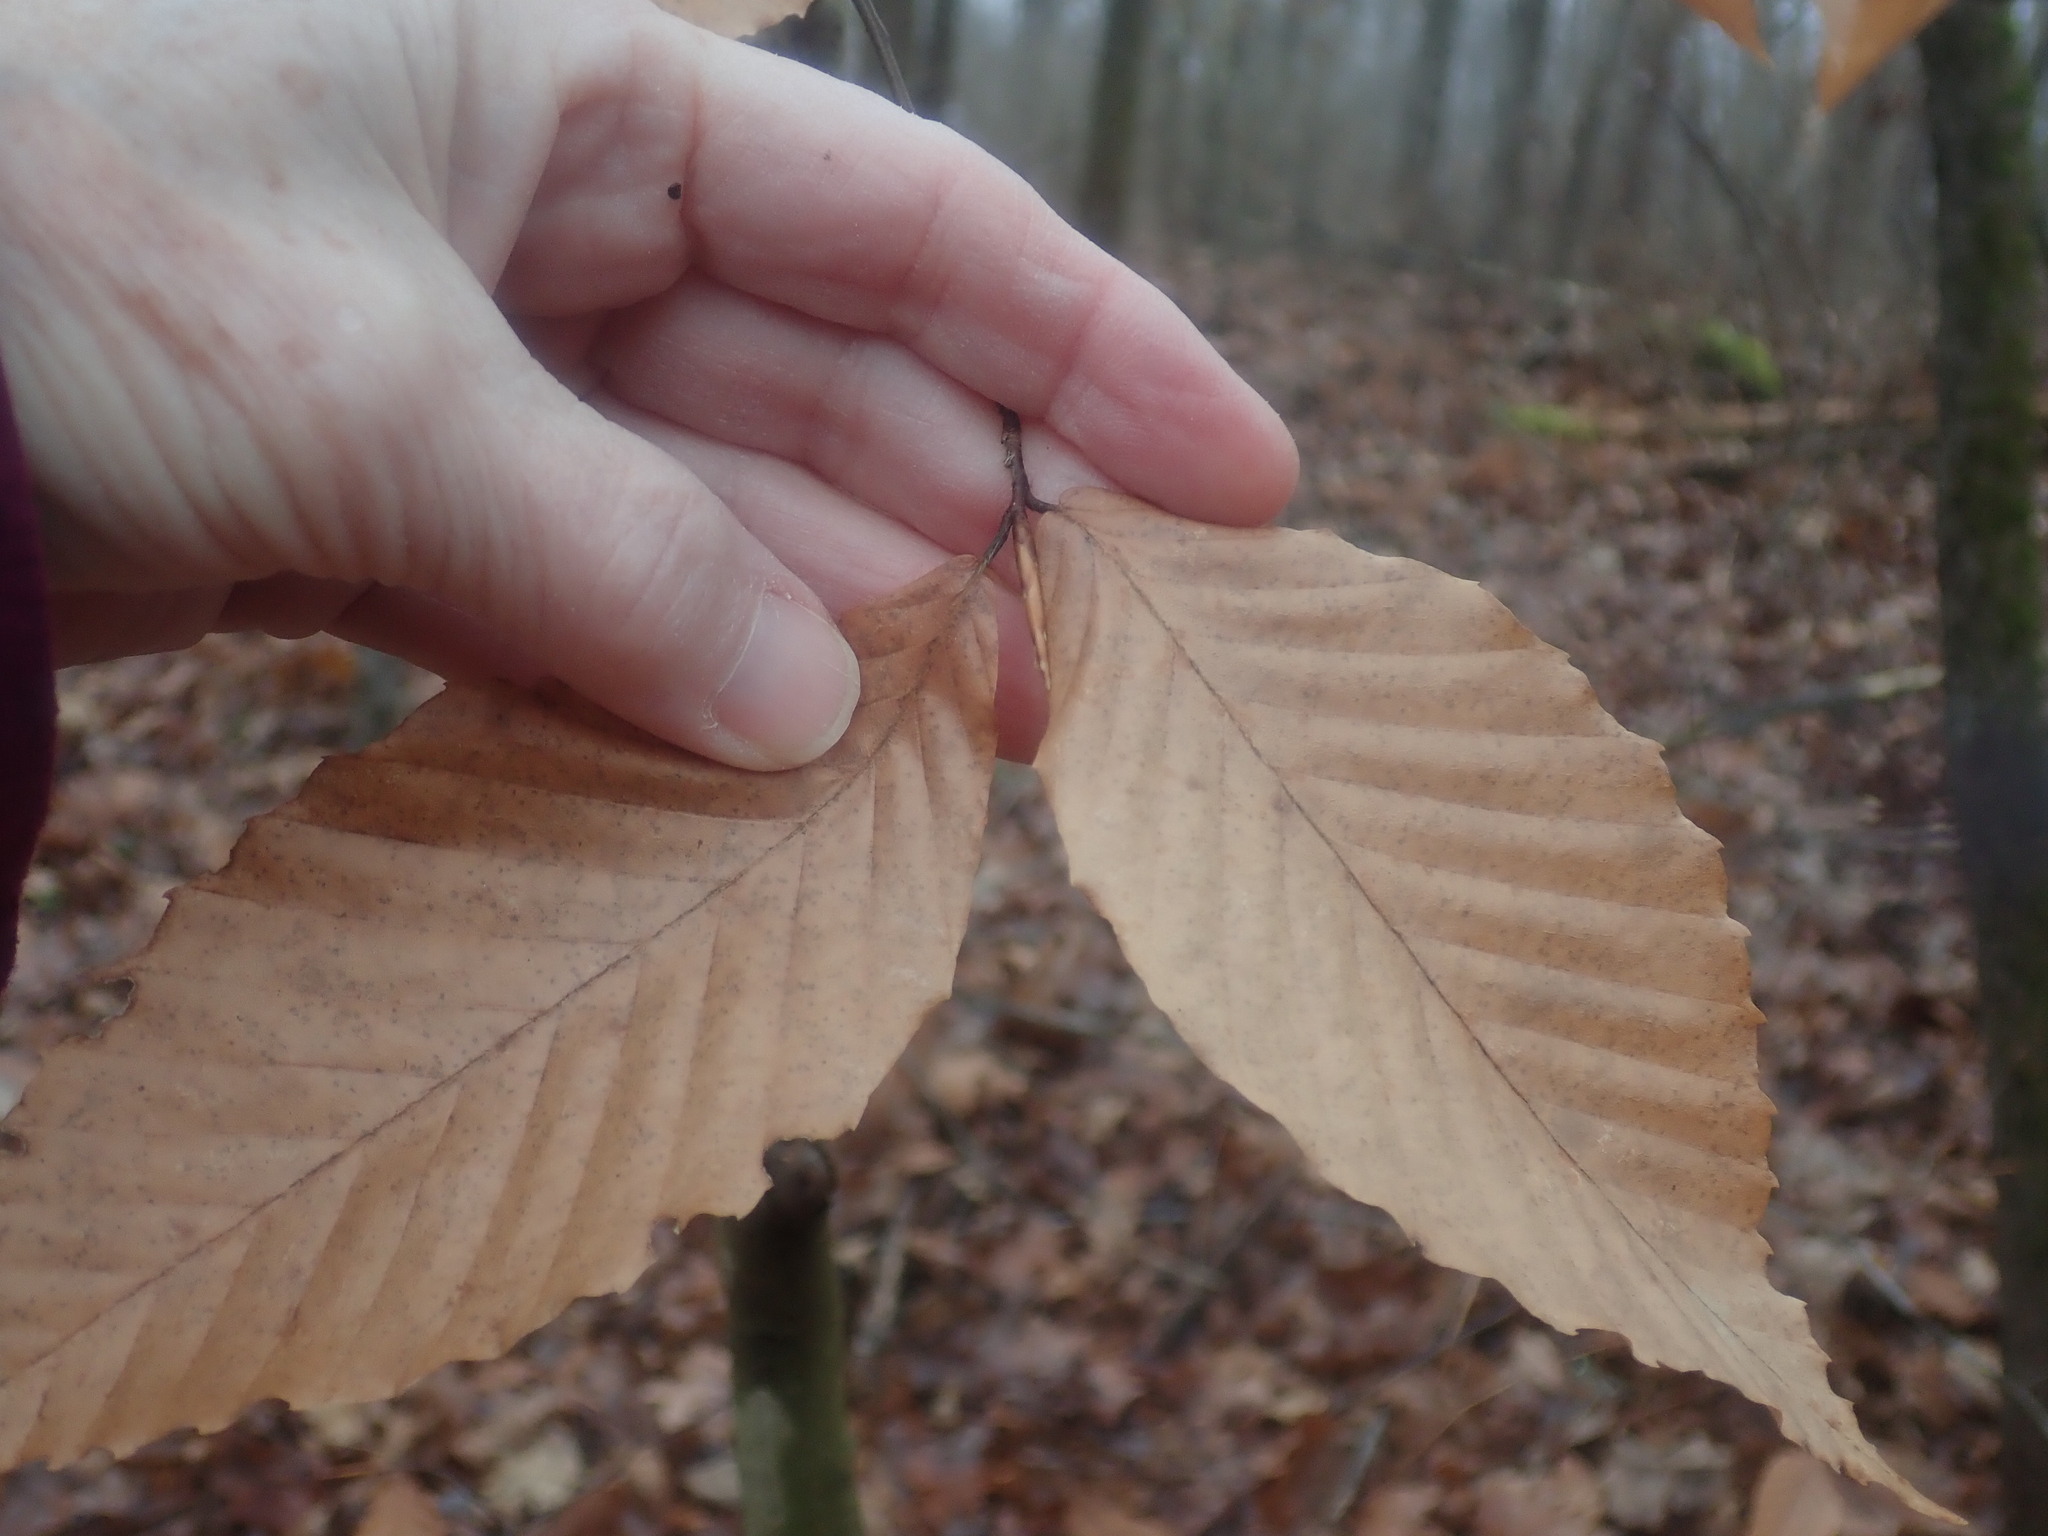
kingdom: Plantae
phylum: Tracheophyta
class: Magnoliopsida
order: Fagales
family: Fagaceae
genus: Fagus
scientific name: Fagus grandifolia
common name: American beech
